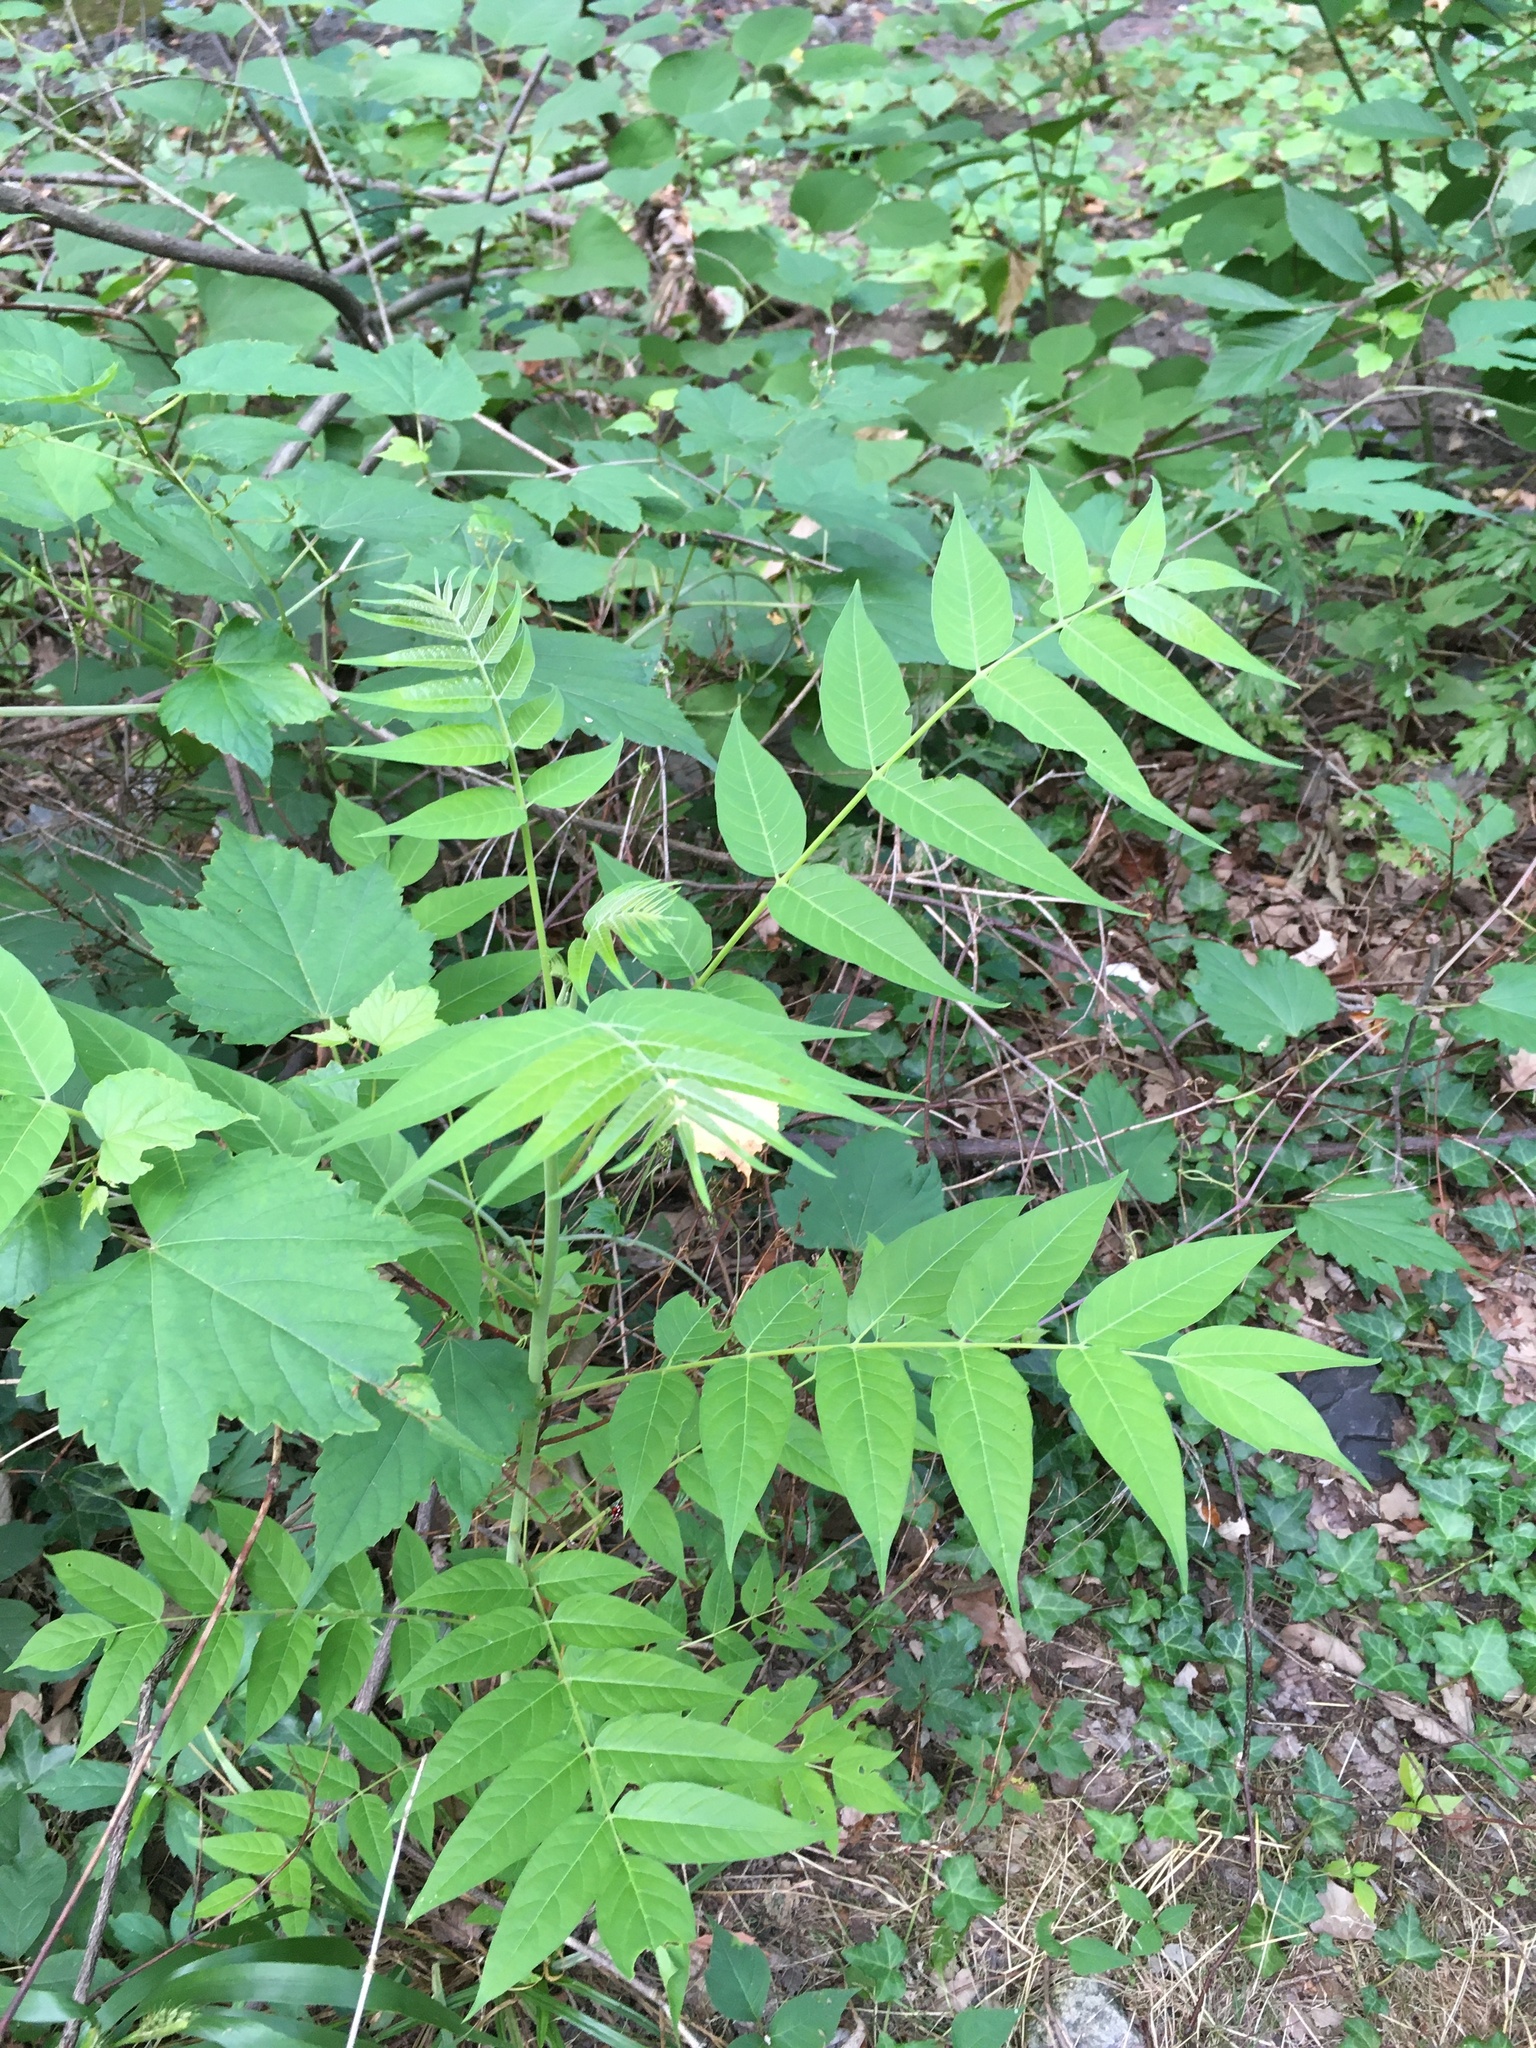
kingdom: Plantae
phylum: Tracheophyta
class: Magnoliopsida
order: Sapindales
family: Simaroubaceae
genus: Ailanthus
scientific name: Ailanthus altissima
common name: Tree-of-heaven
